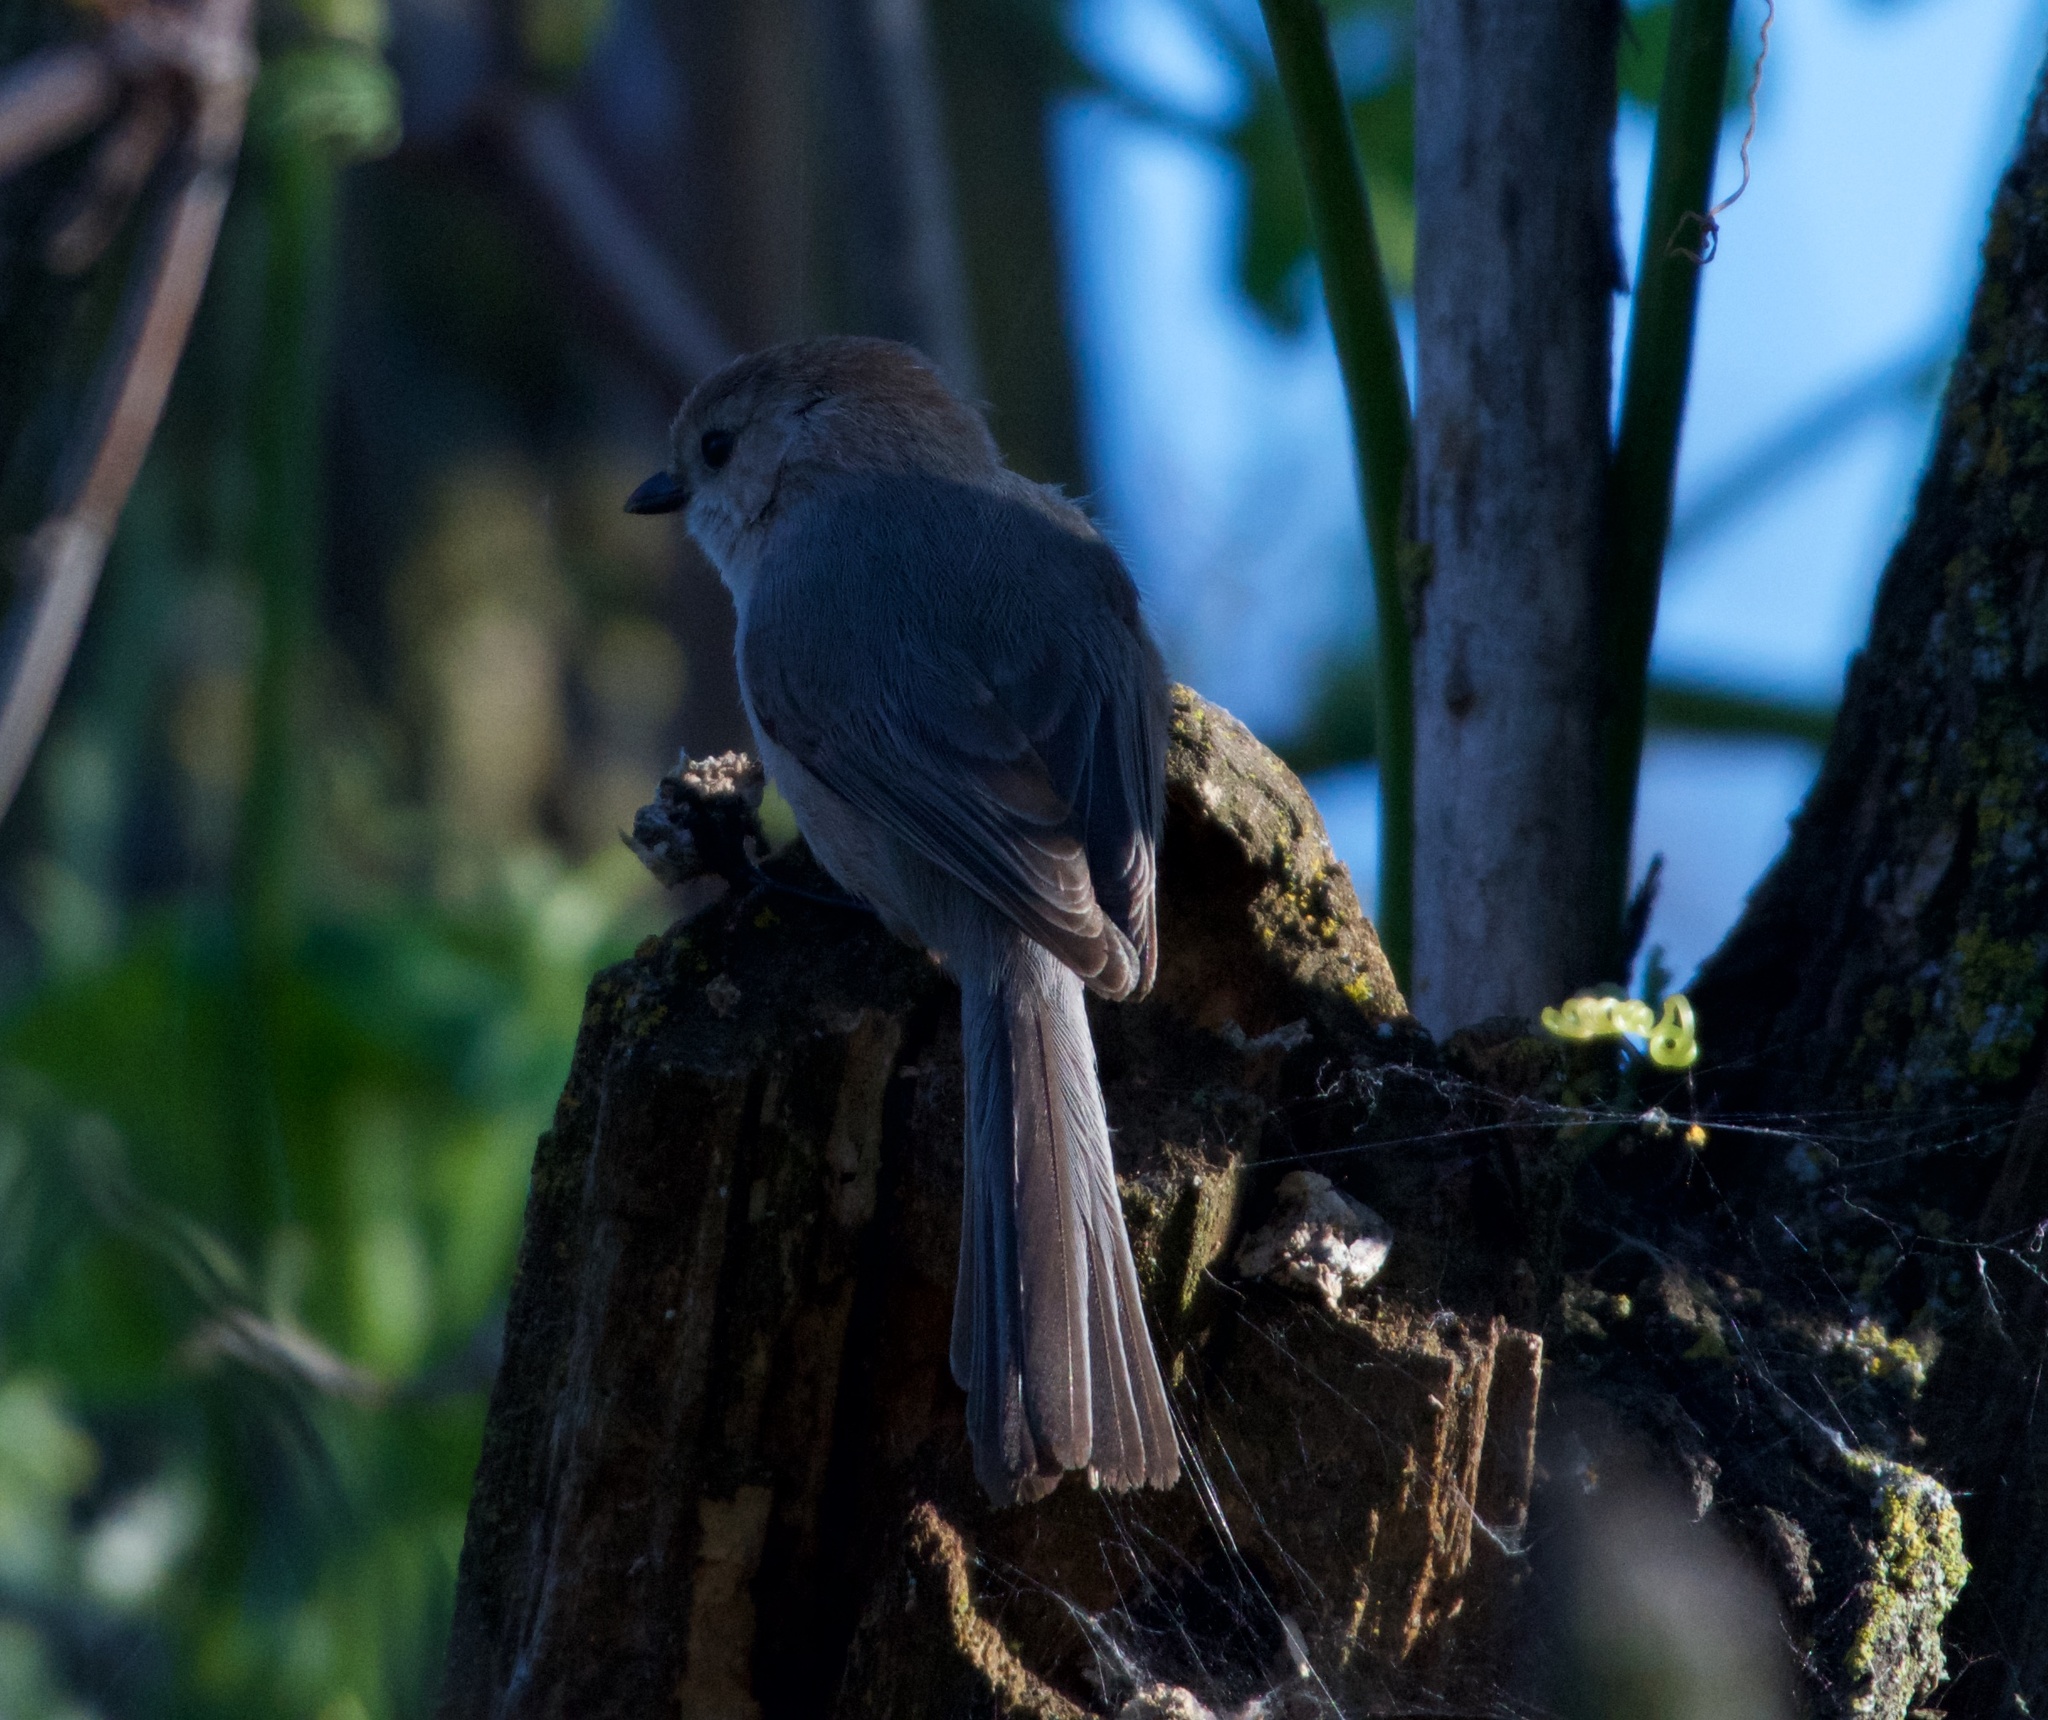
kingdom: Animalia
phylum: Chordata
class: Aves
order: Passeriformes
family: Aegithalidae
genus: Psaltriparus
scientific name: Psaltriparus minimus
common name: American bushtit
